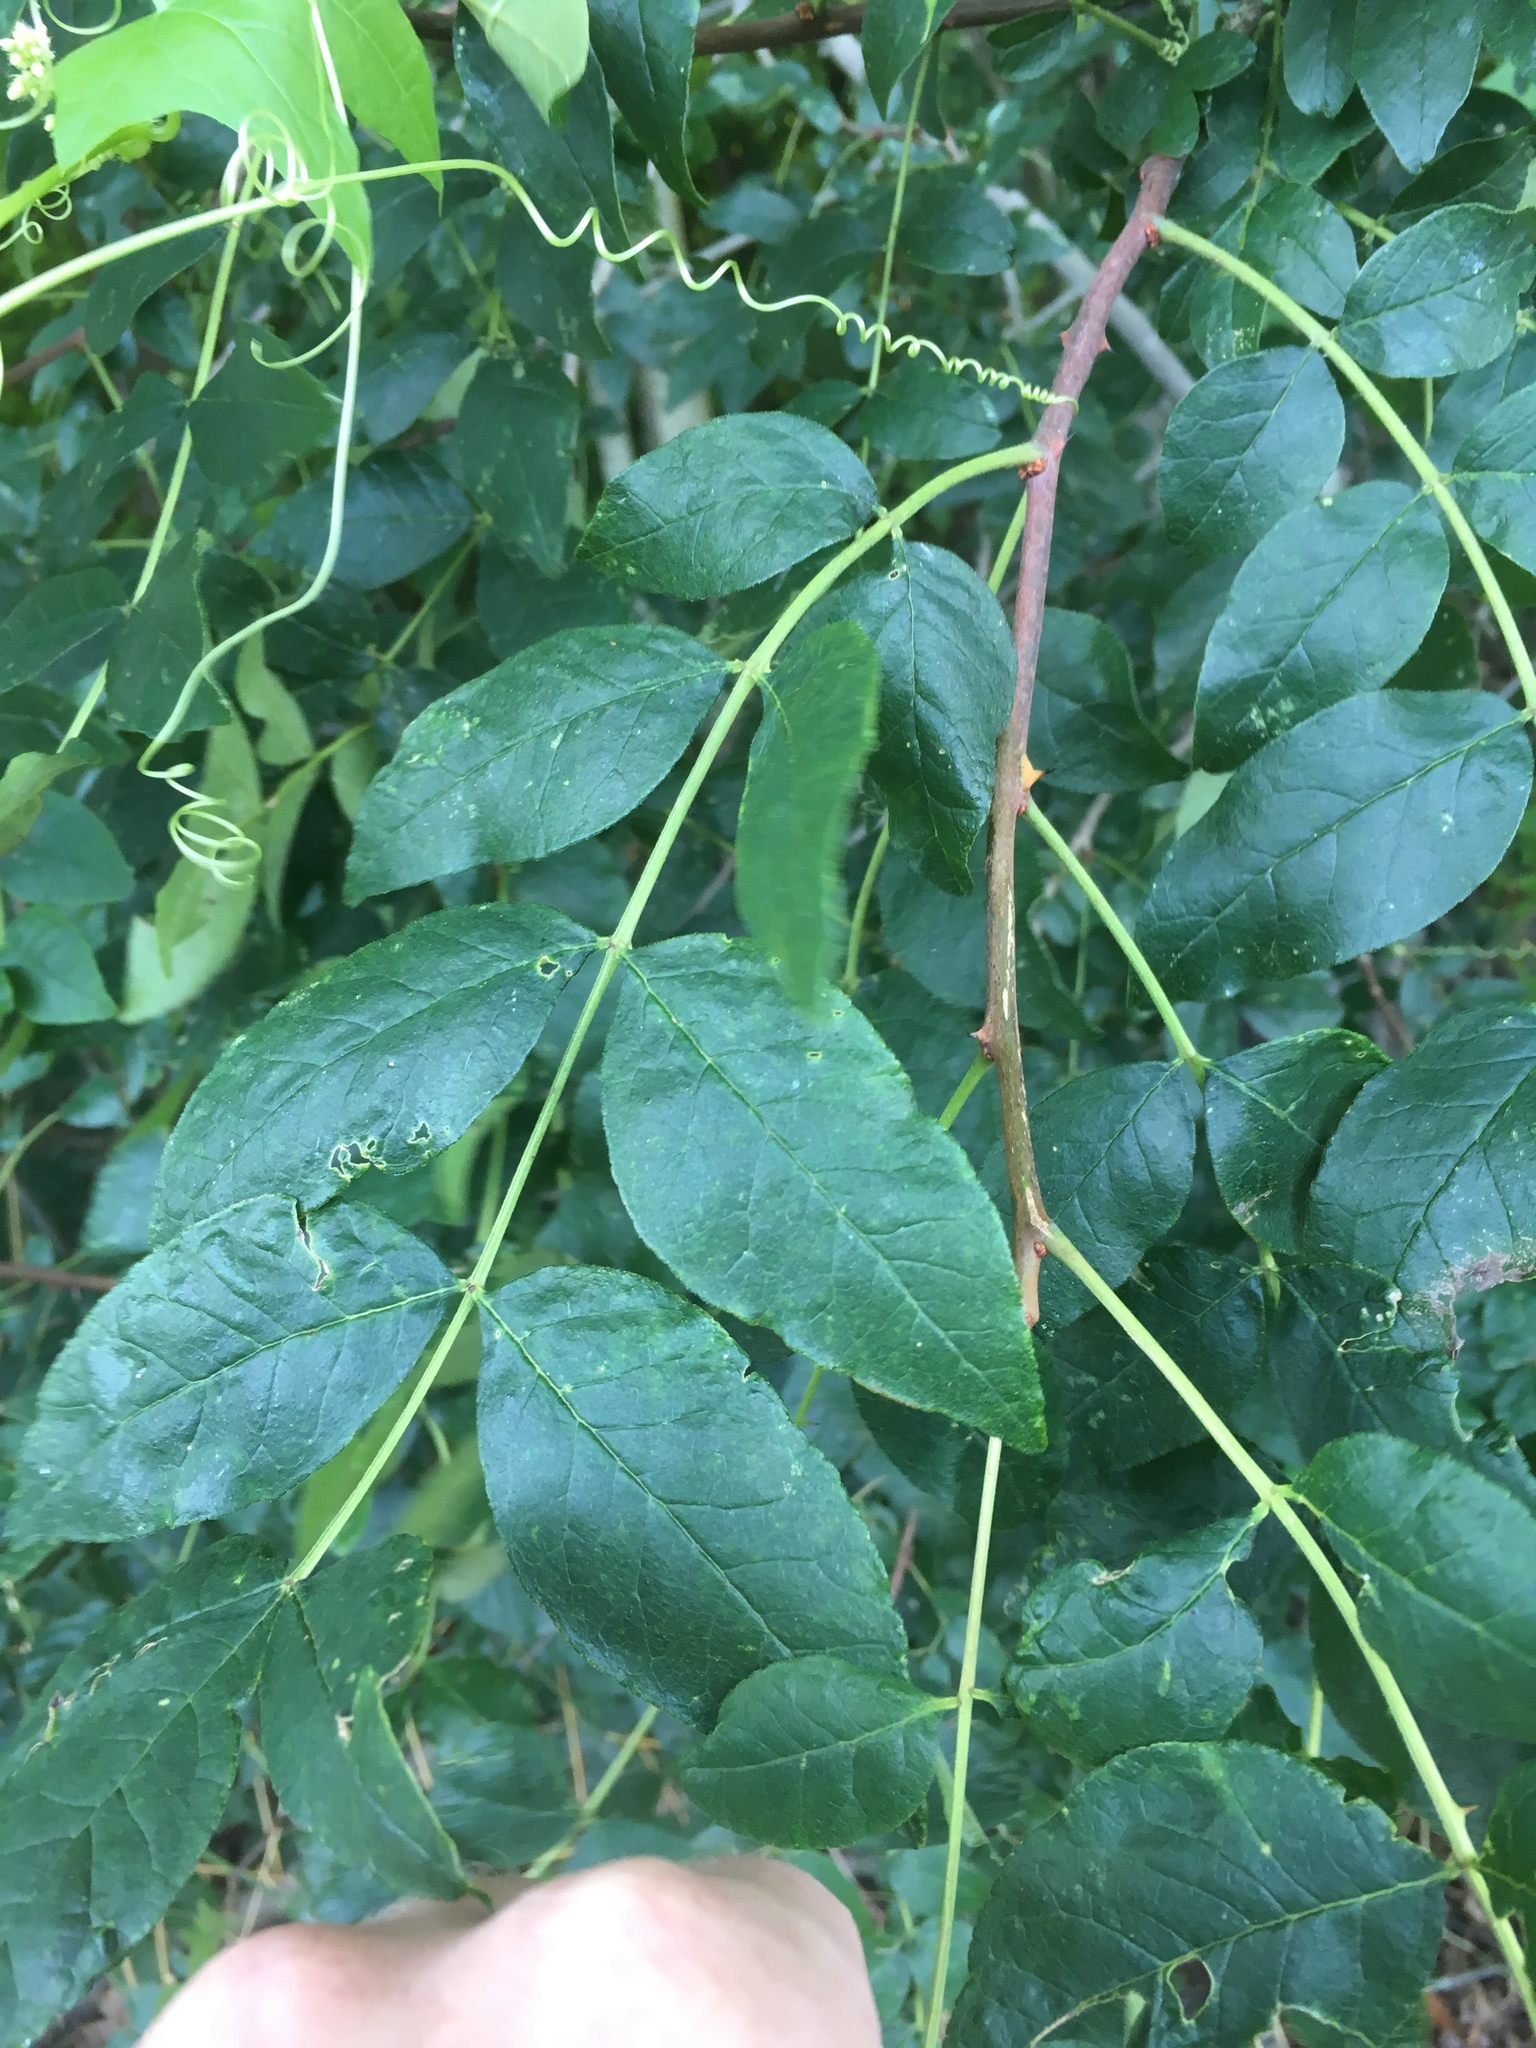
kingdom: Plantae
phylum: Tracheophyta
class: Magnoliopsida
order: Sapindales
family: Rutaceae
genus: Zanthoxylum
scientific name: Zanthoxylum americanum
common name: Northern prickly-ash
